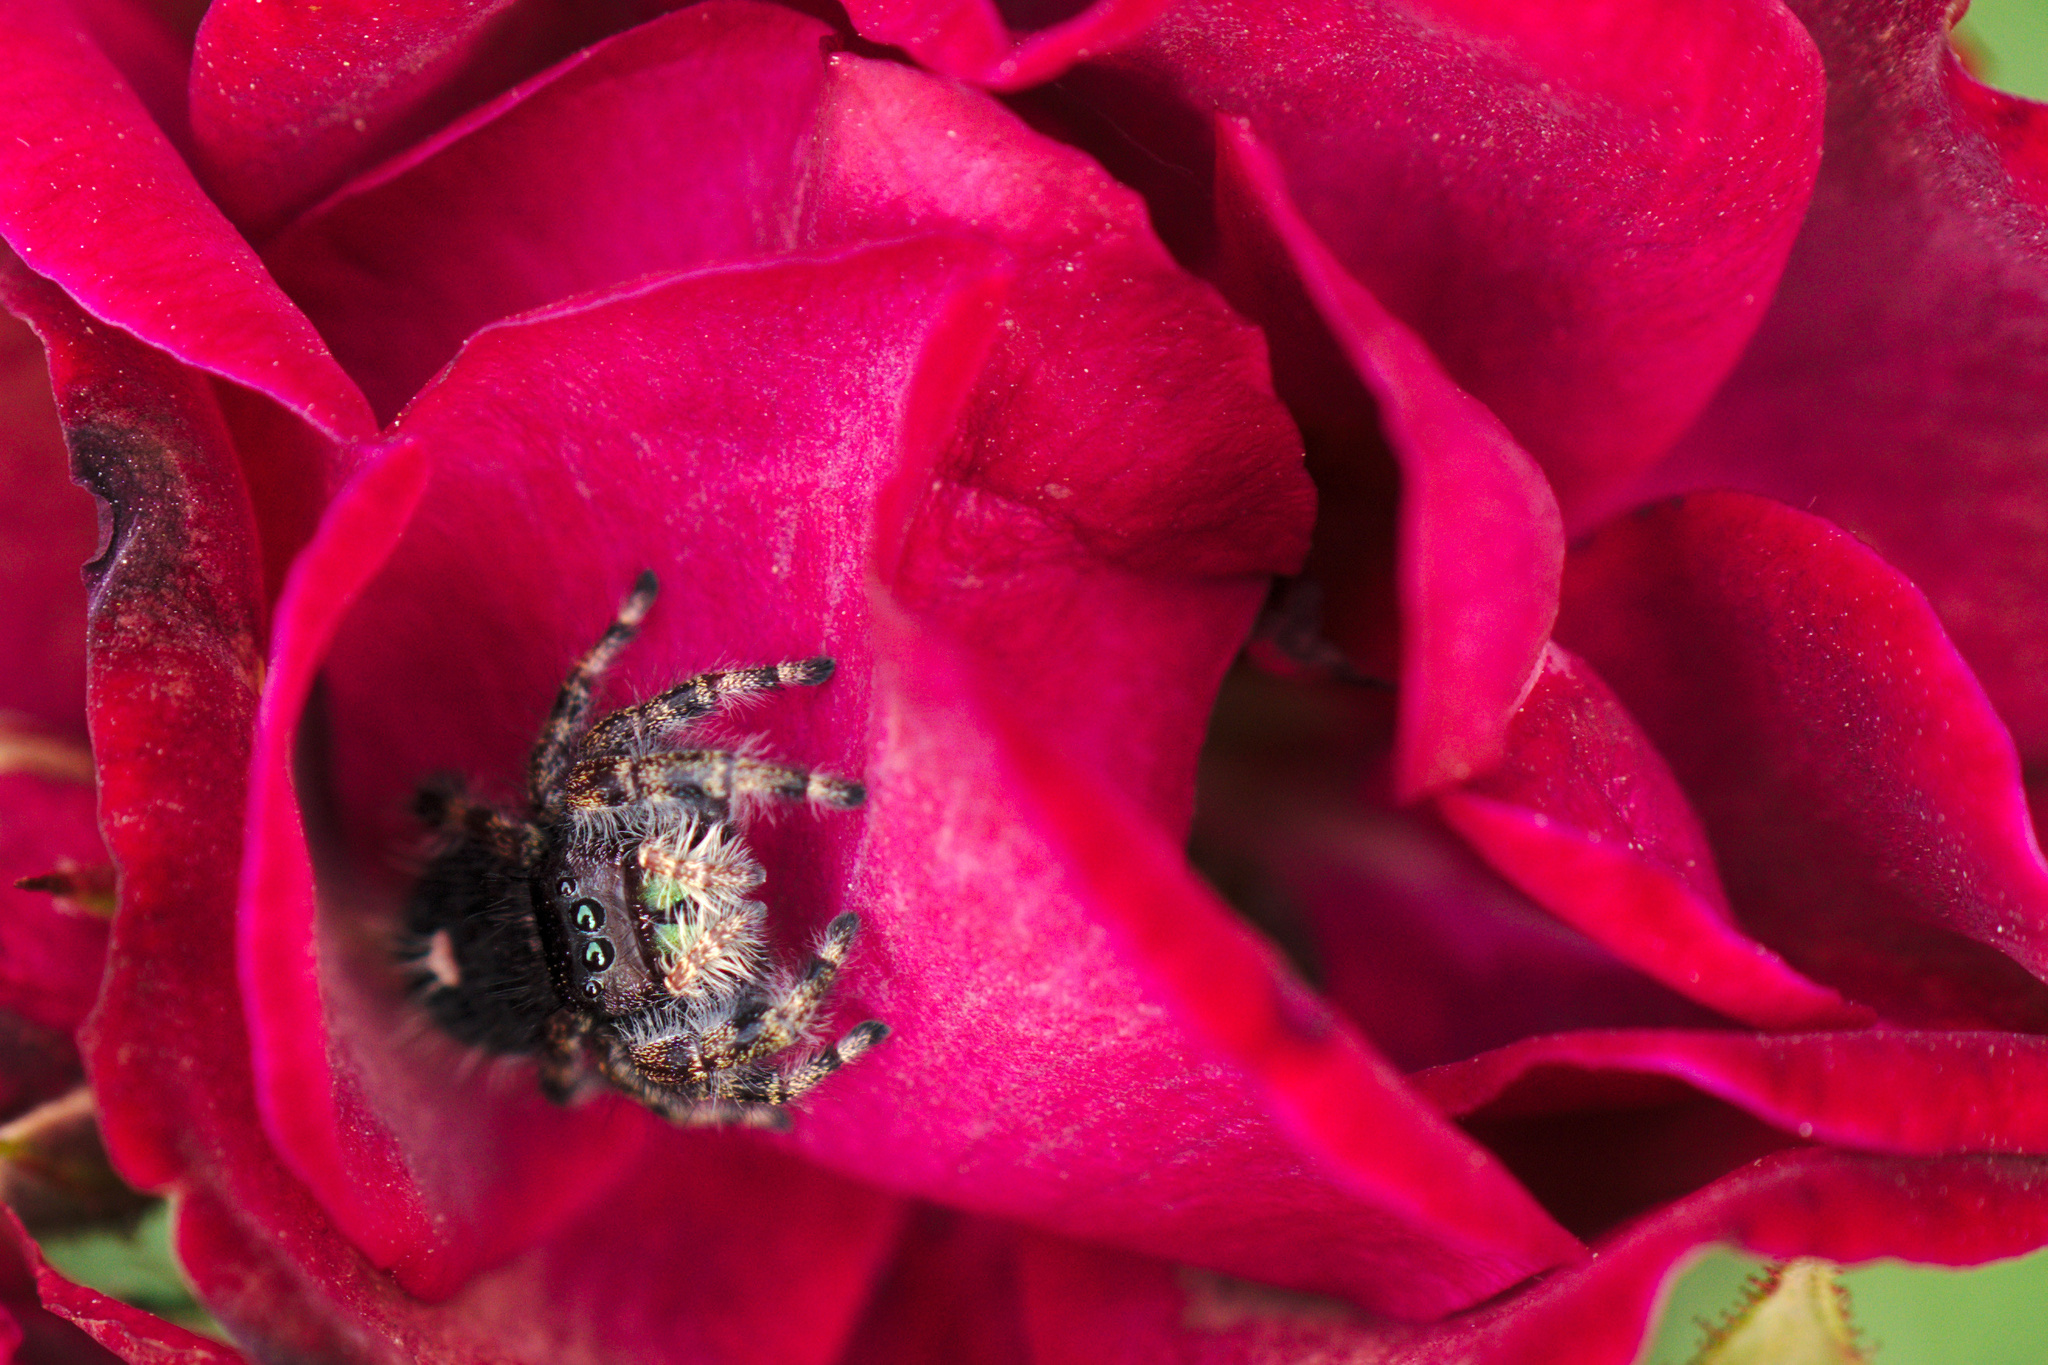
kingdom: Animalia
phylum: Arthropoda
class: Arachnida
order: Araneae
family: Salticidae
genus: Phidippus
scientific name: Phidippus audax
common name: Bold jumper
